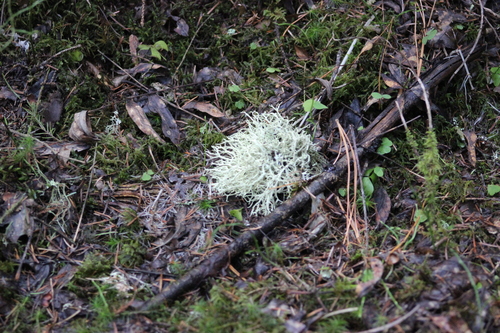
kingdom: Fungi
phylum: Ascomycota
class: Lecanoromycetes
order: Lecanorales
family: Parmeliaceae
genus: Evernia
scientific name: Evernia mesomorpha
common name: Boreal oak moss lichen
